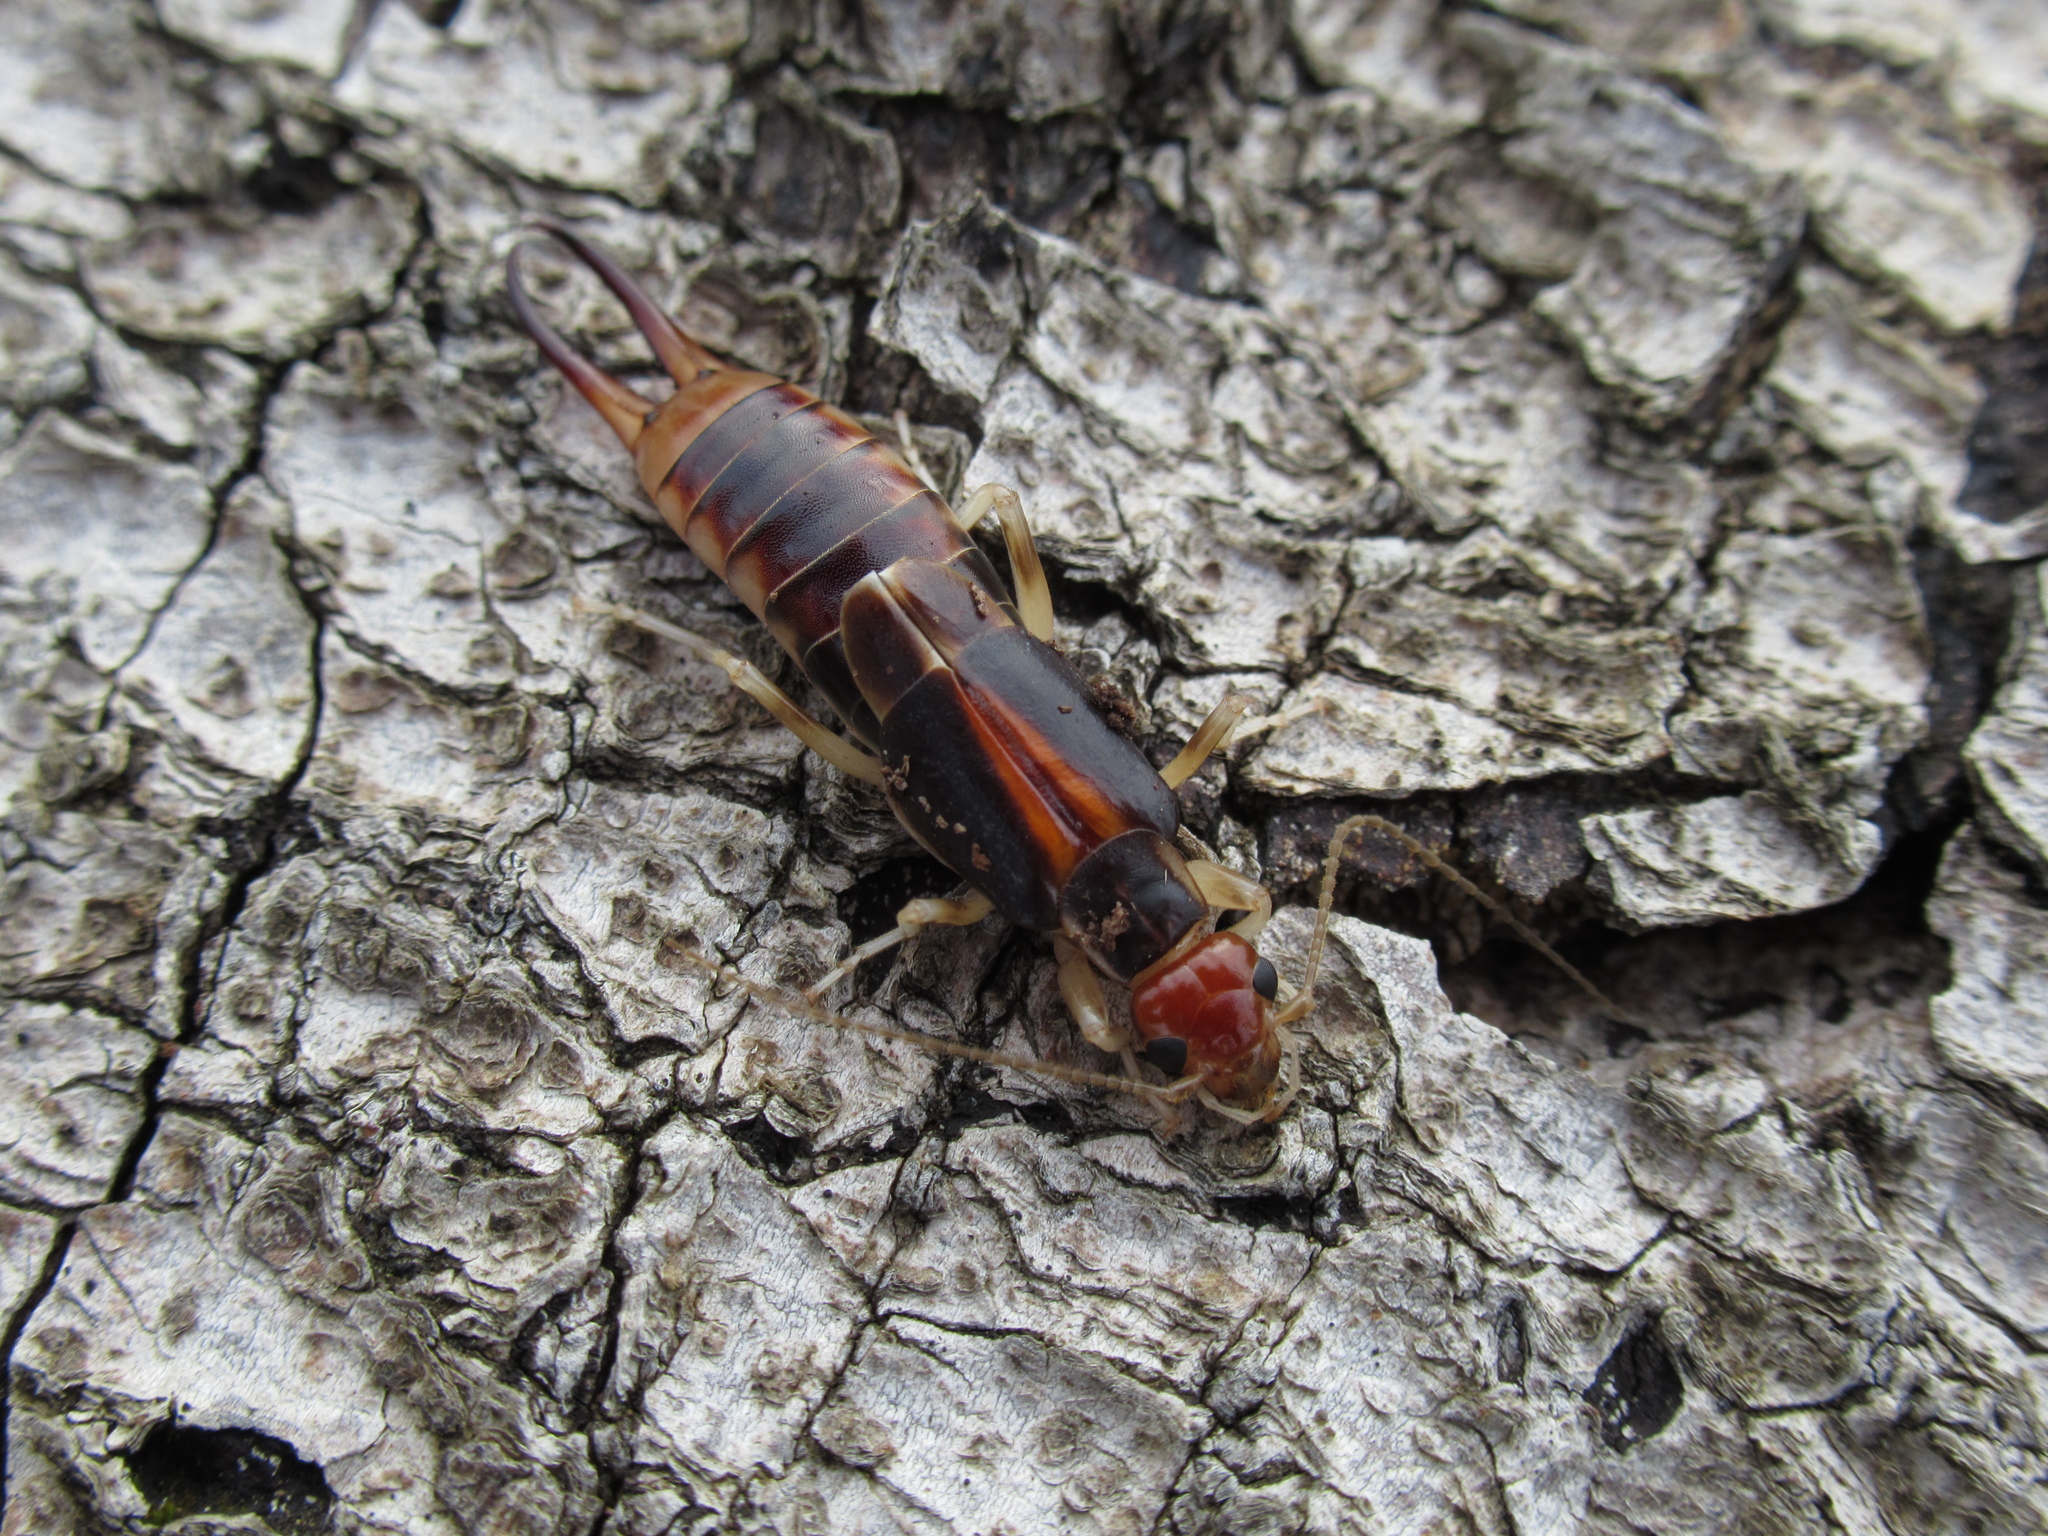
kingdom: Animalia
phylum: Arthropoda
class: Insecta
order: Dermaptera
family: Labiduridae
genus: Labidura
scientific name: Labidura riparia
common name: Striped earwig
